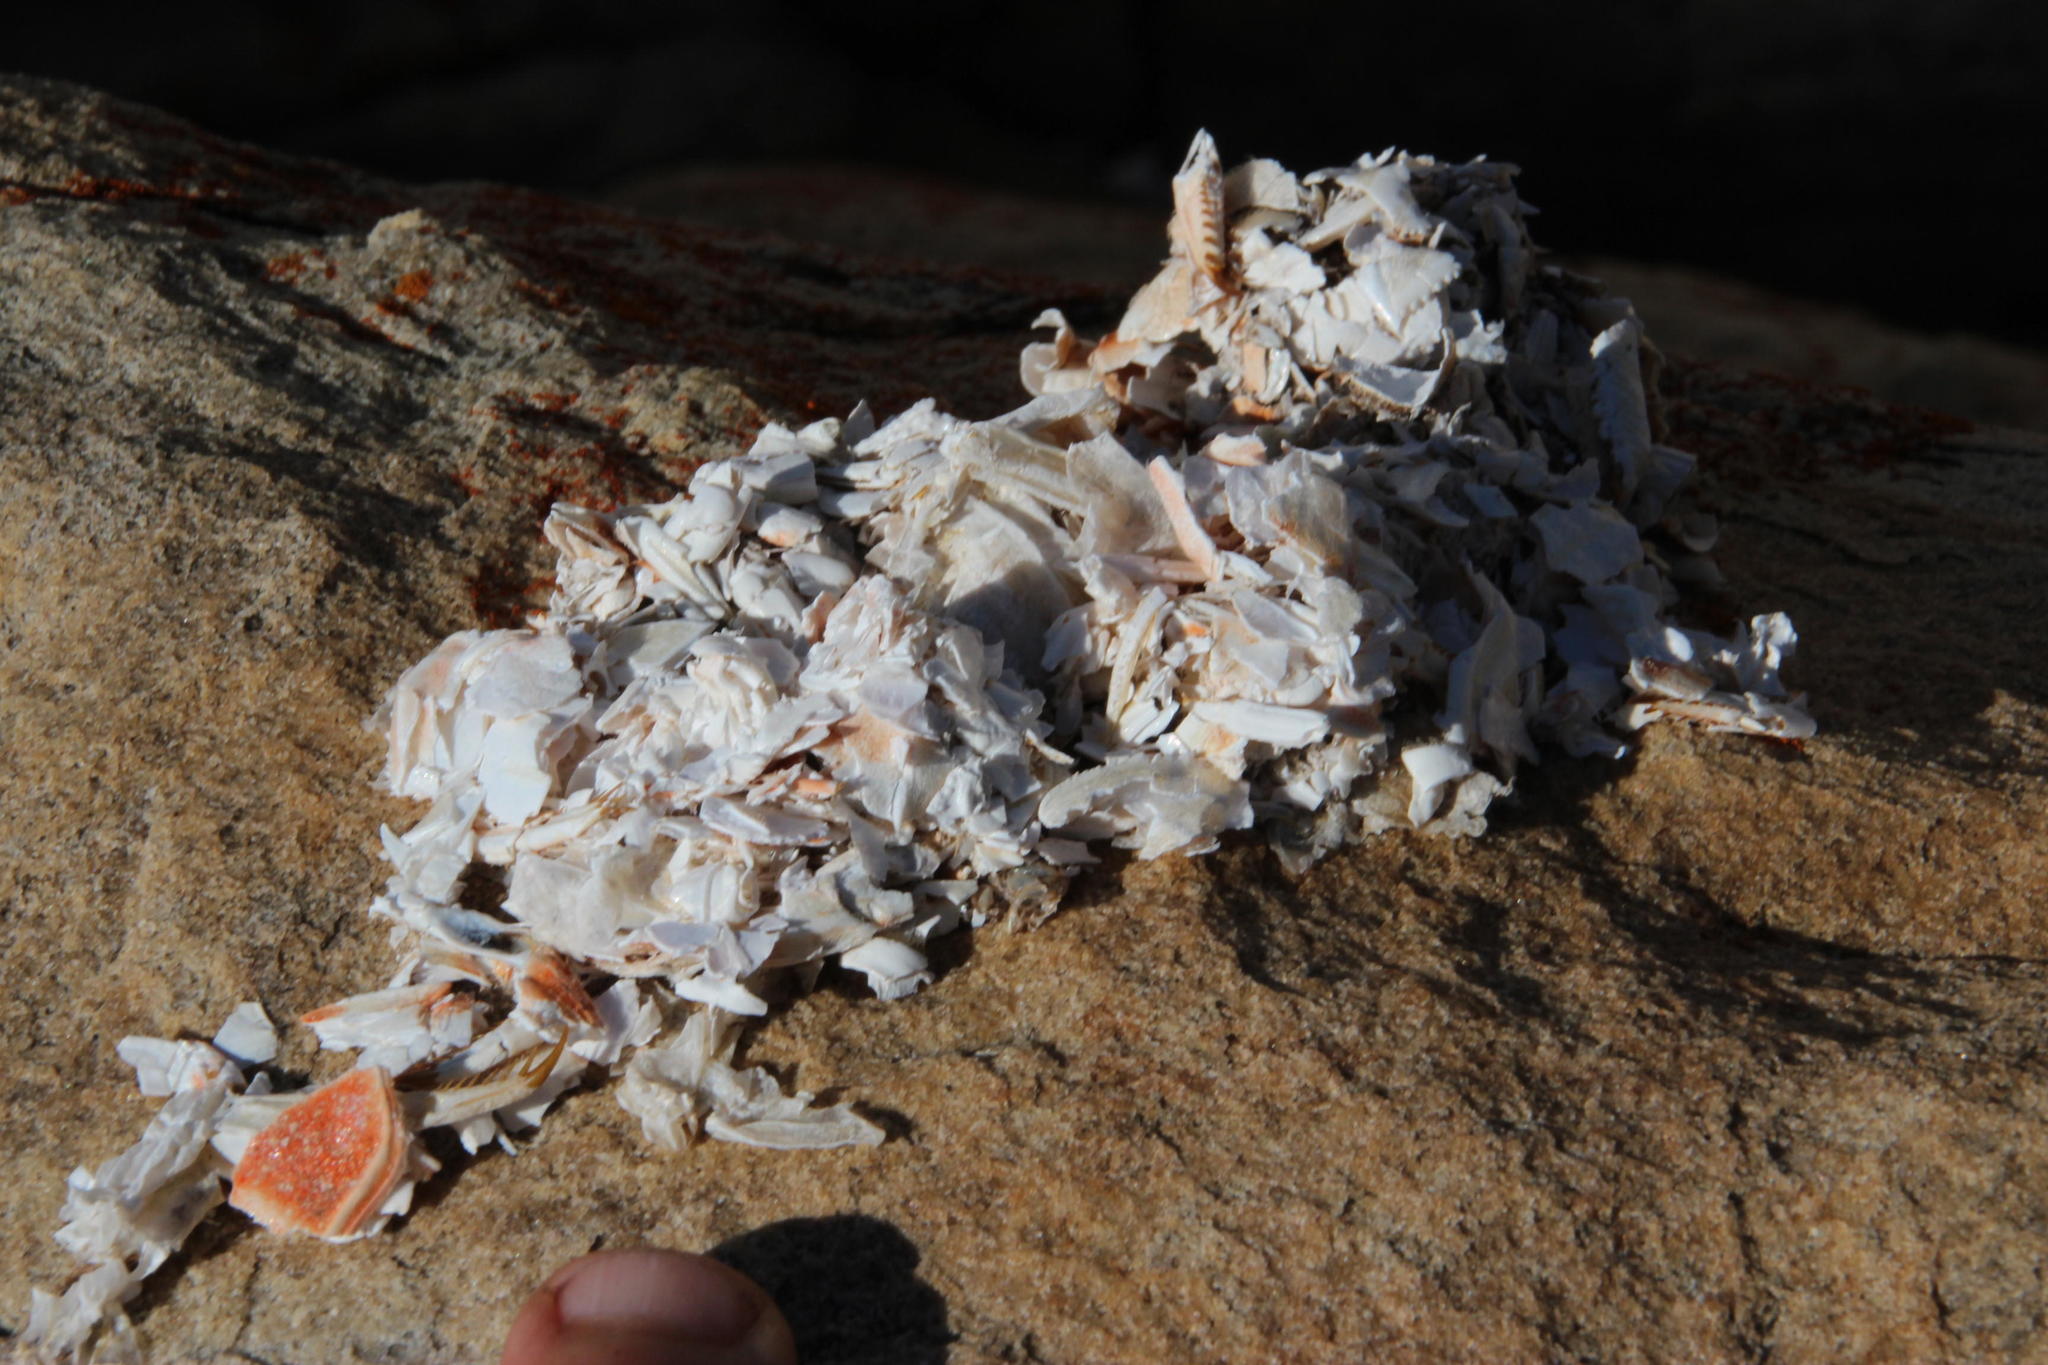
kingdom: Animalia
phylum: Chordata
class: Mammalia
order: Carnivora
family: Mustelidae
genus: Aonyx
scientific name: Aonyx capensis
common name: African clawless otter
